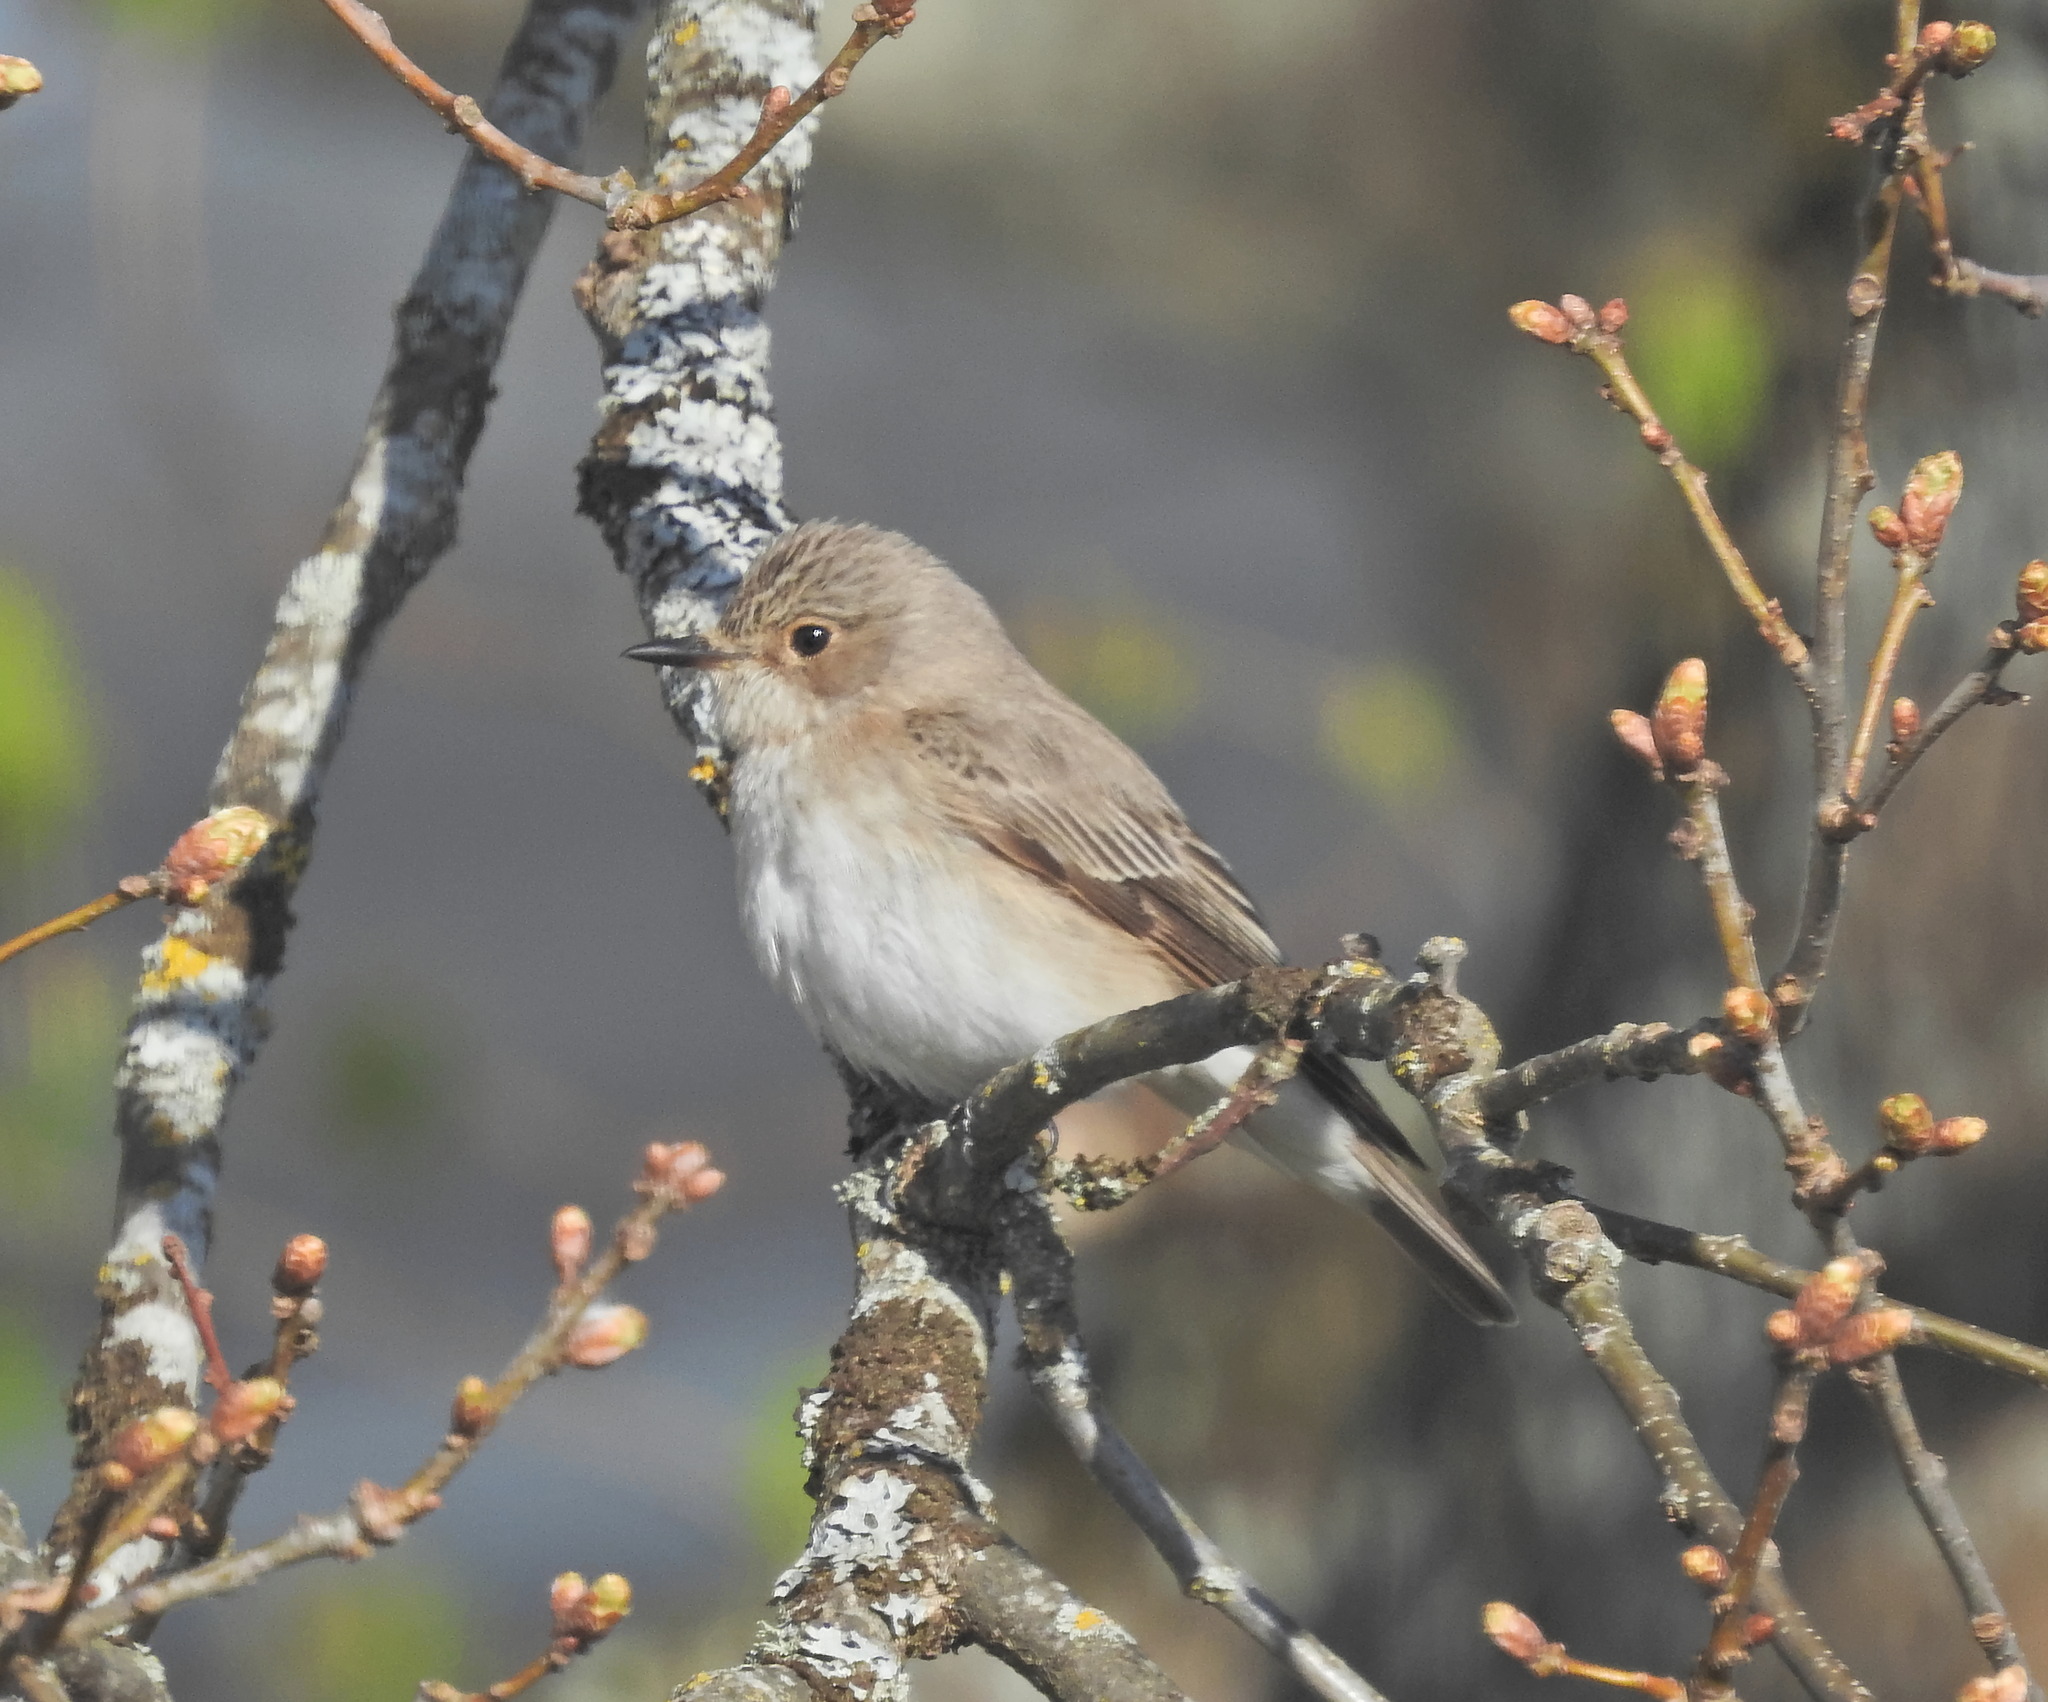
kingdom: Animalia
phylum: Chordata
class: Aves
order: Passeriformes
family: Muscicapidae
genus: Muscicapa
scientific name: Muscicapa striata
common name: Spotted flycatcher
